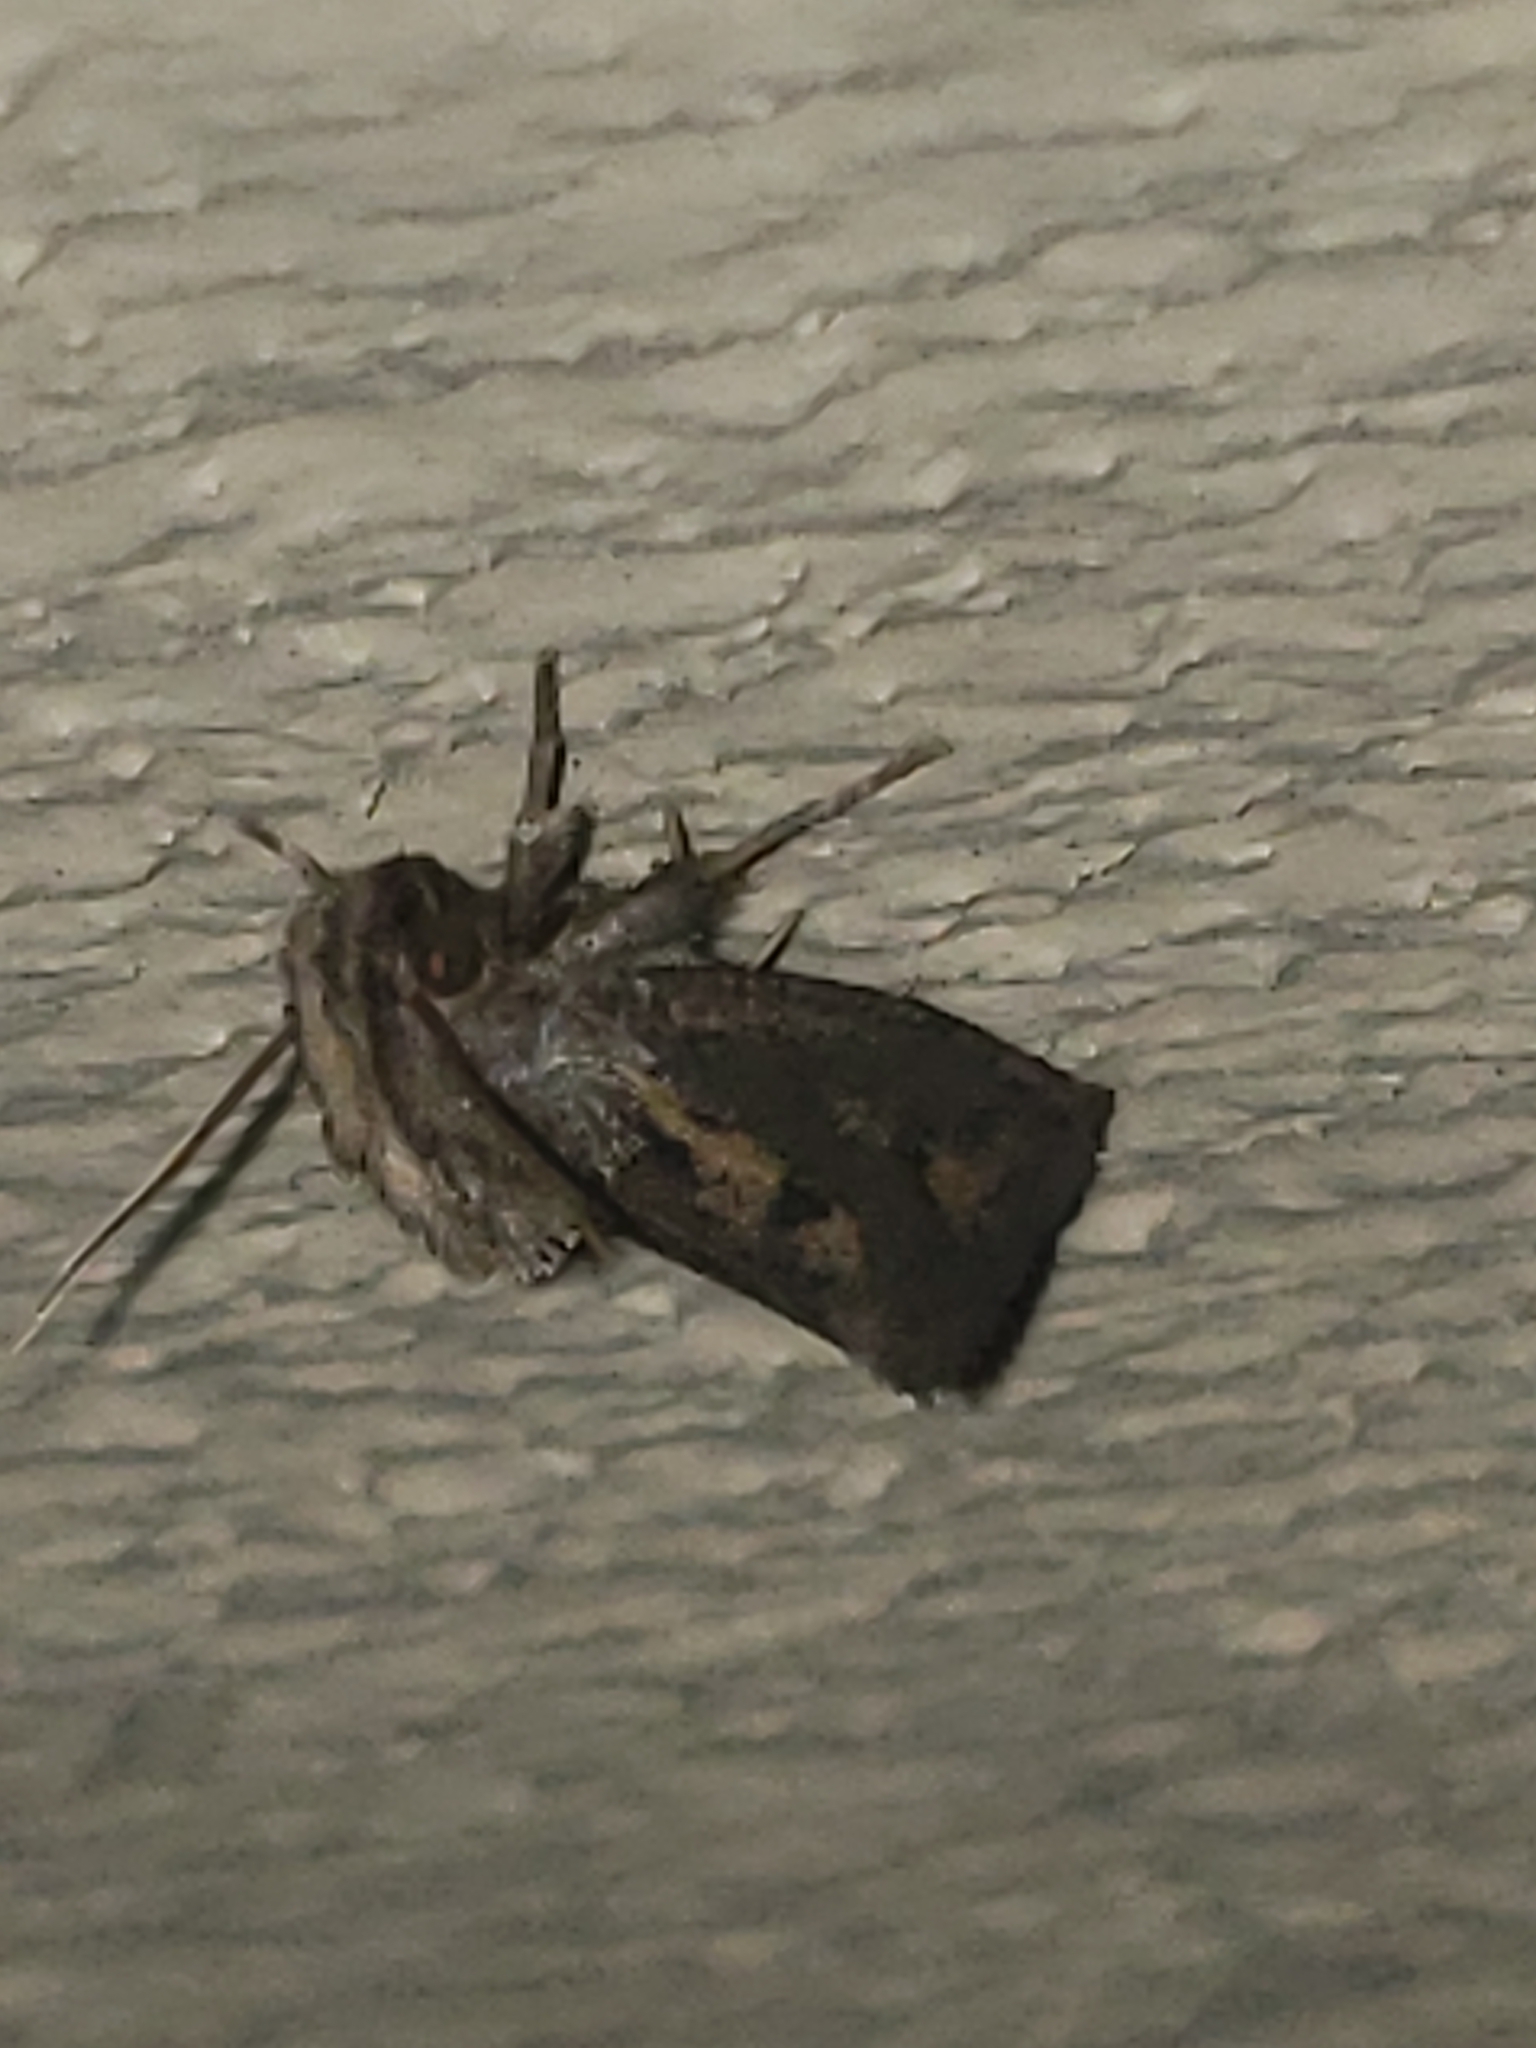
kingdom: Animalia
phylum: Arthropoda
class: Insecta
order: Lepidoptera
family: Tineidae
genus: Acrolophus
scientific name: Acrolophus popeanella
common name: Clemens' grass tubeworm moth
